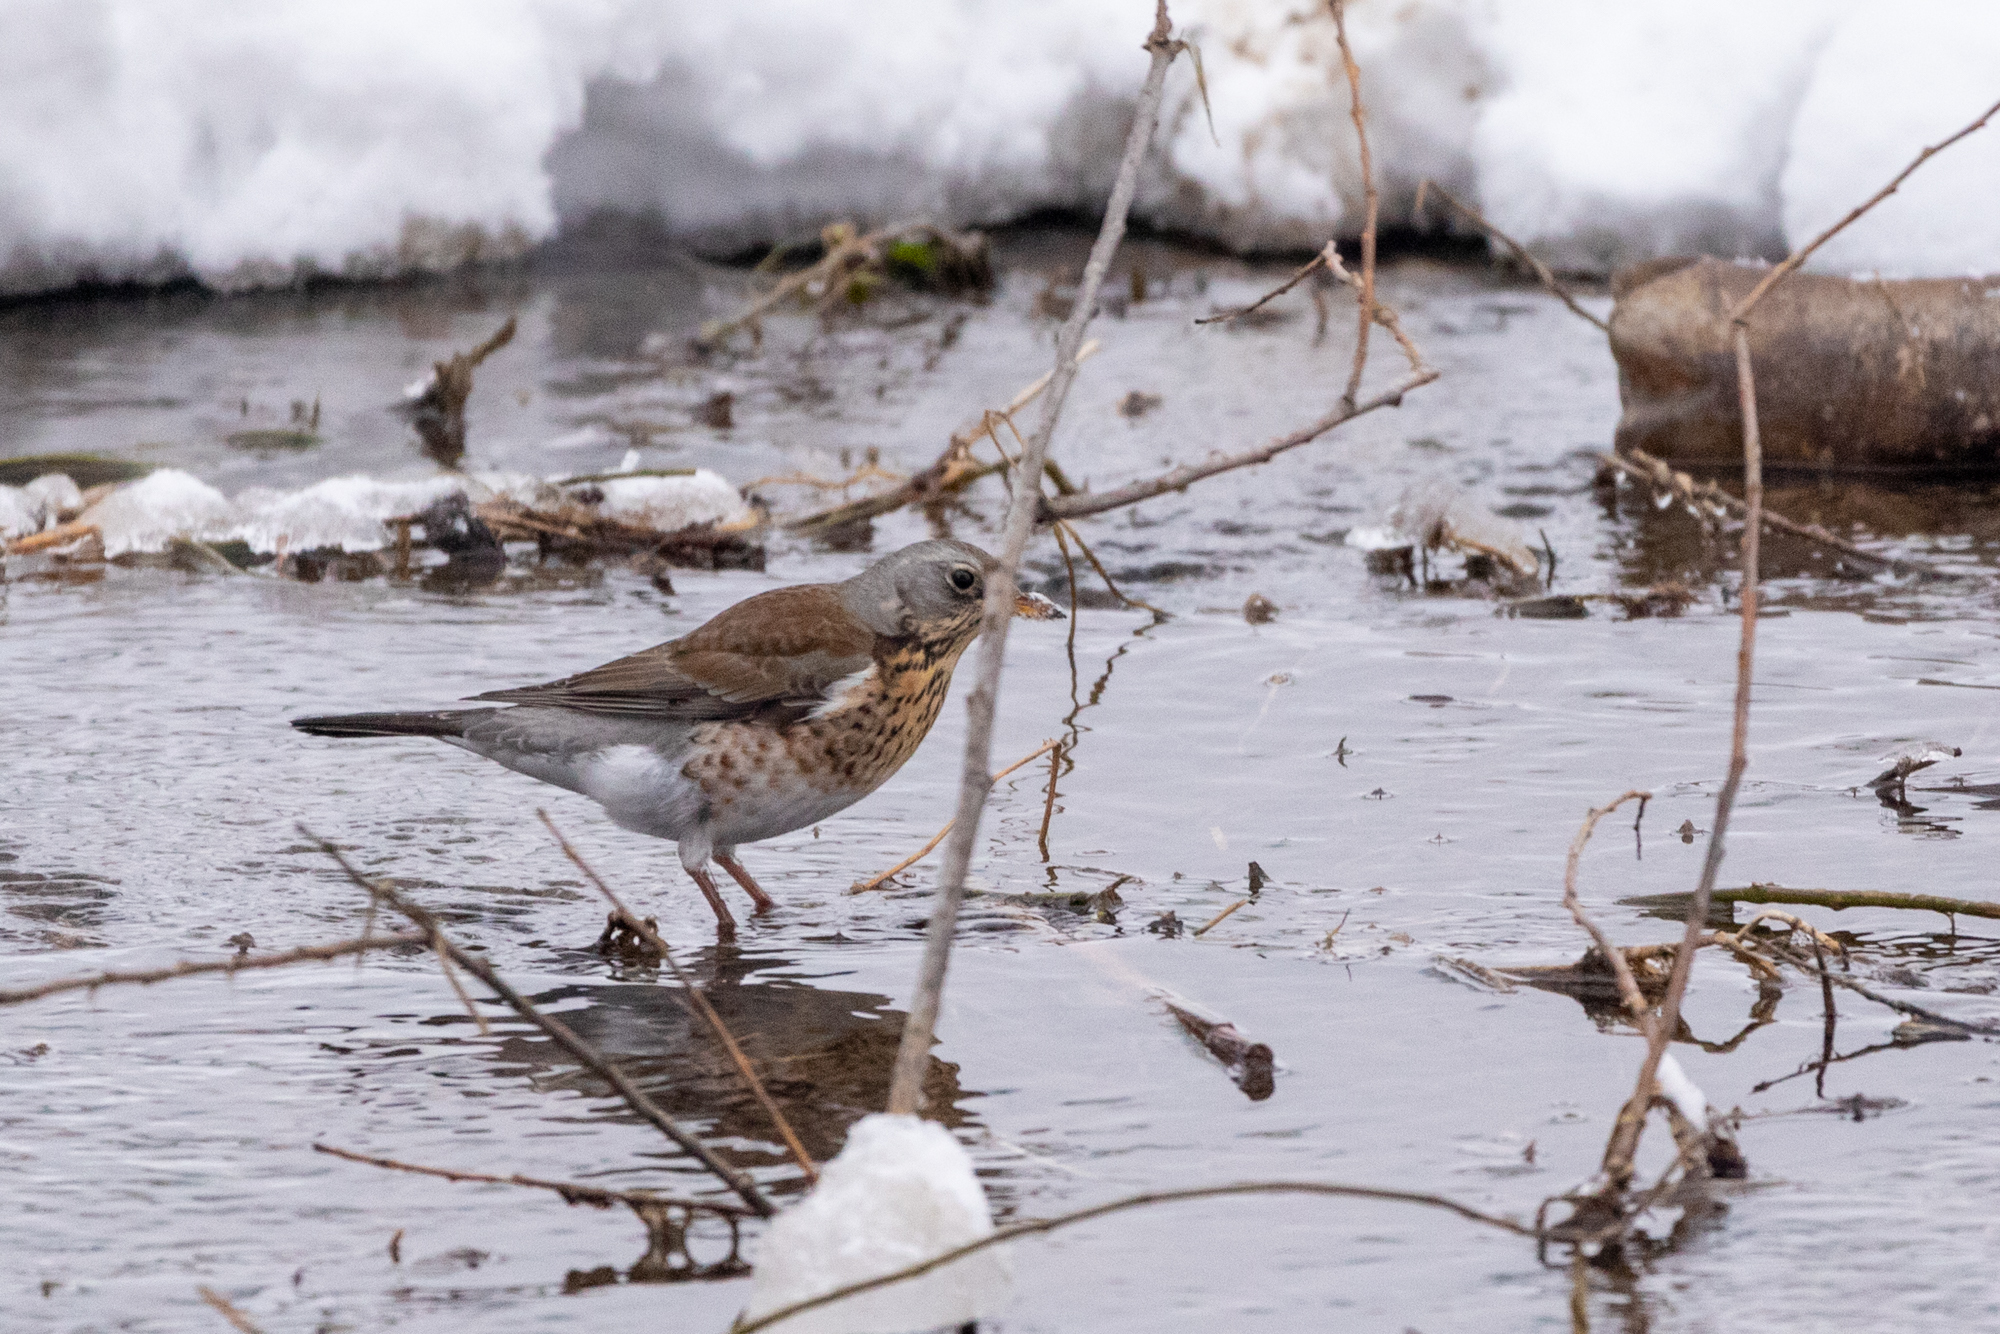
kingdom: Animalia
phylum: Chordata
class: Aves
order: Passeriformes
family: Turdidae
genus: Turdus
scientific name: Turdus pilaris
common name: Fieldfare
